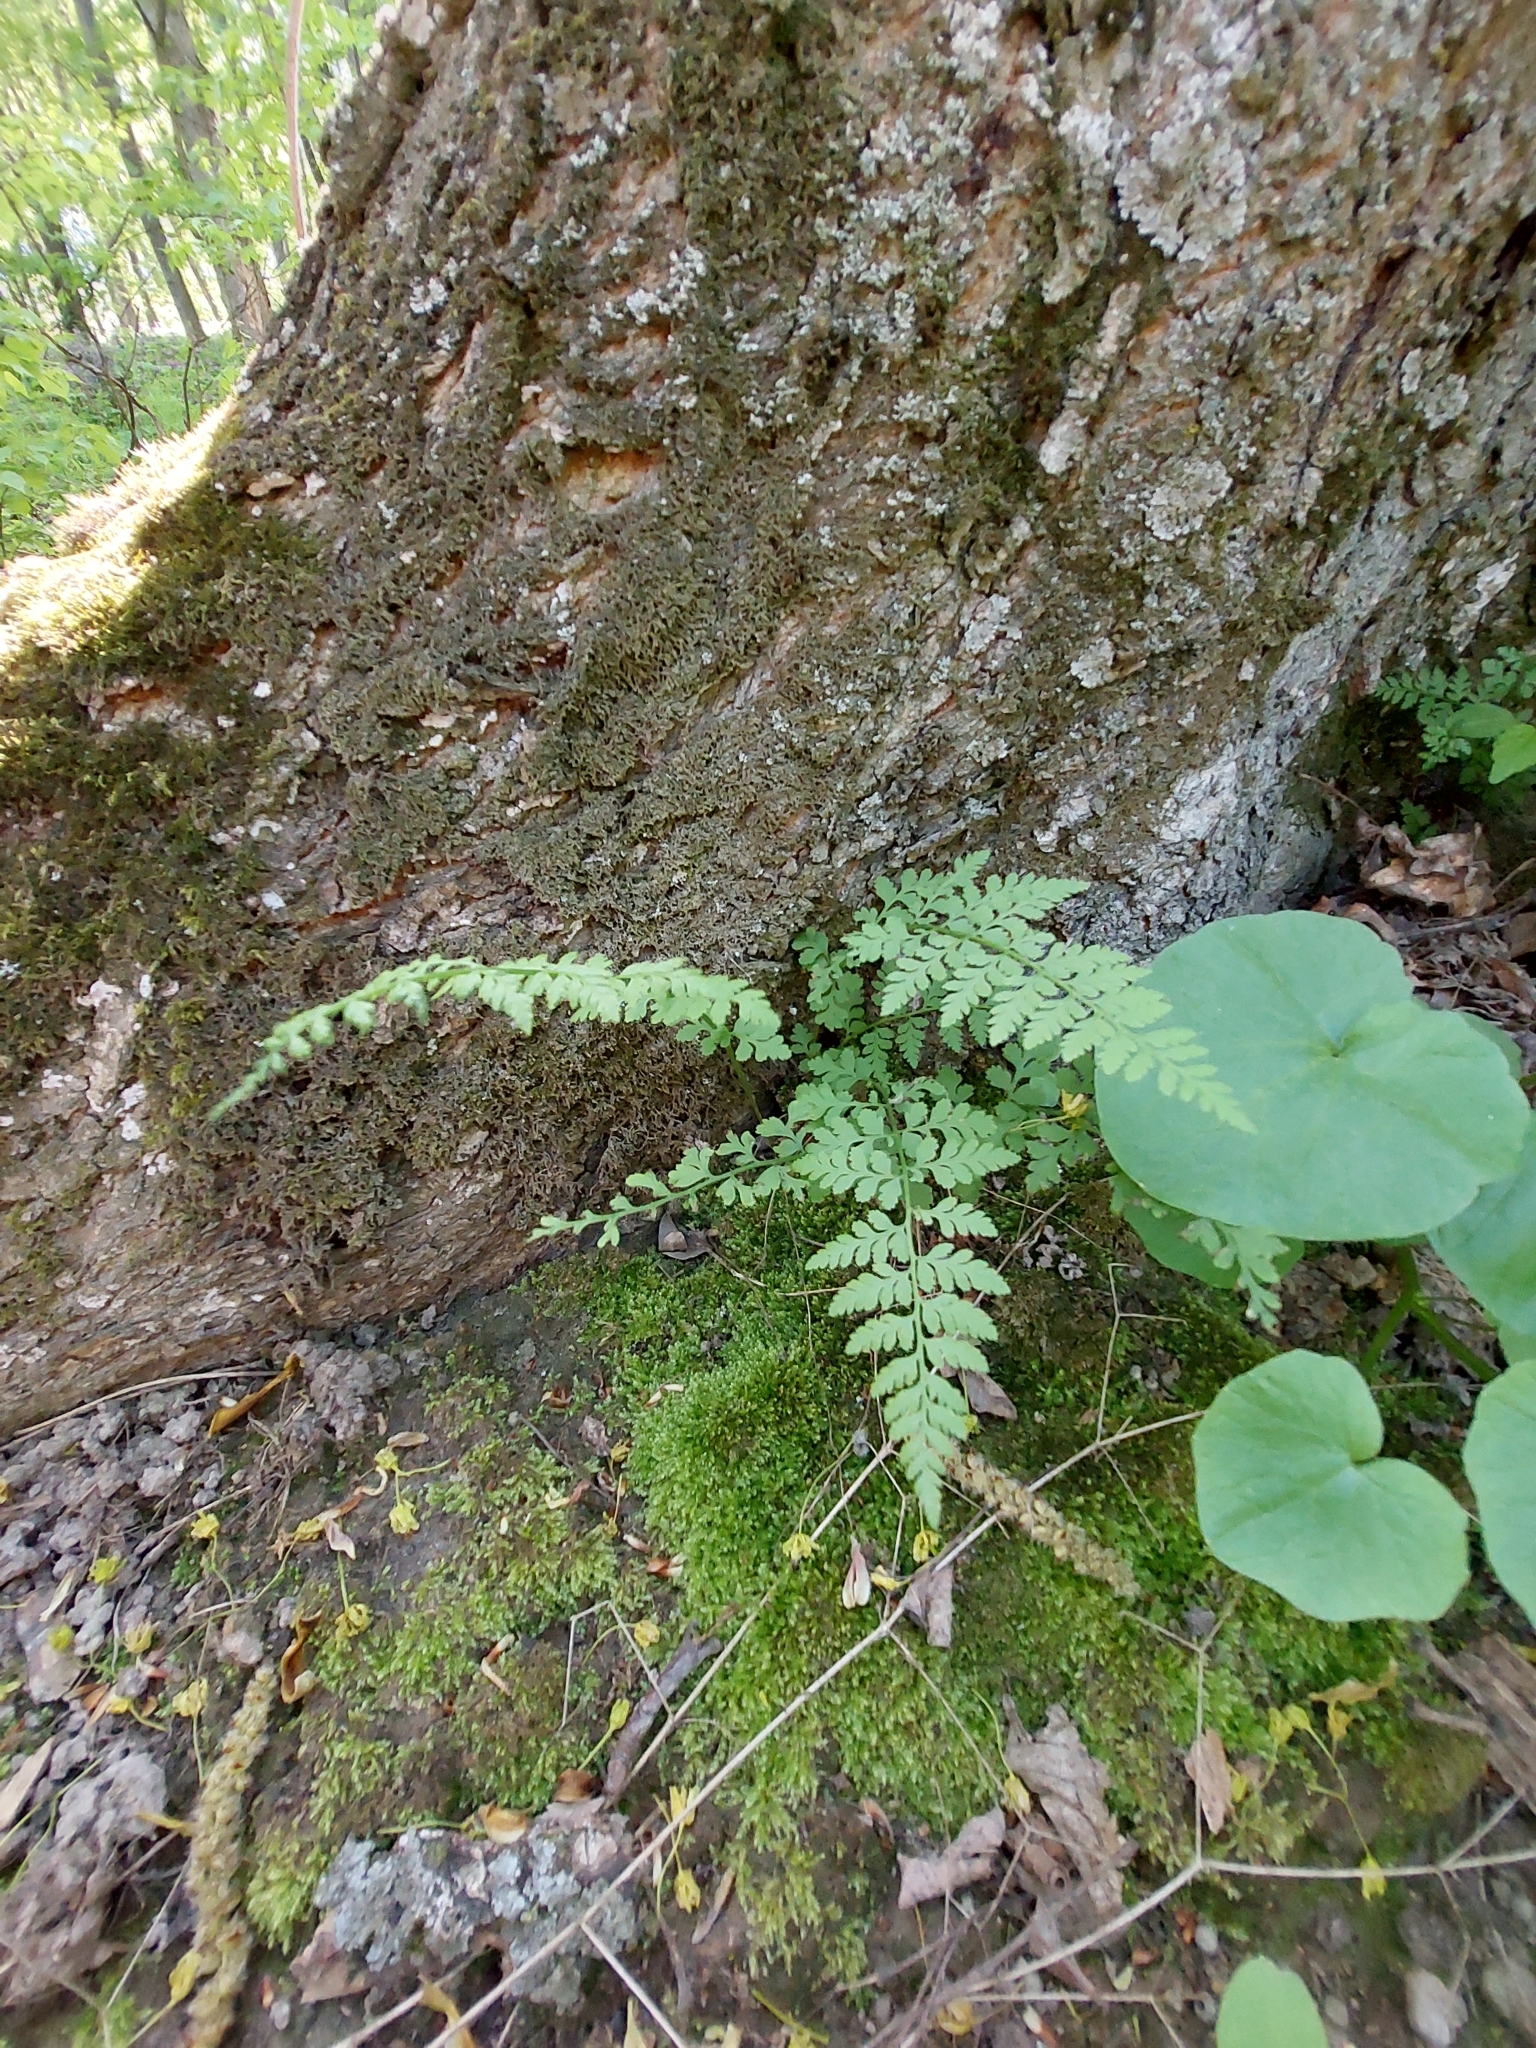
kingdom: Plantae
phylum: Tracheophyta
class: Polypodiopsida
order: Polypodiales
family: Cystopteridaceae
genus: Cystopteris
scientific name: Cystopteris fragilis
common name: Brittle bladder fern
